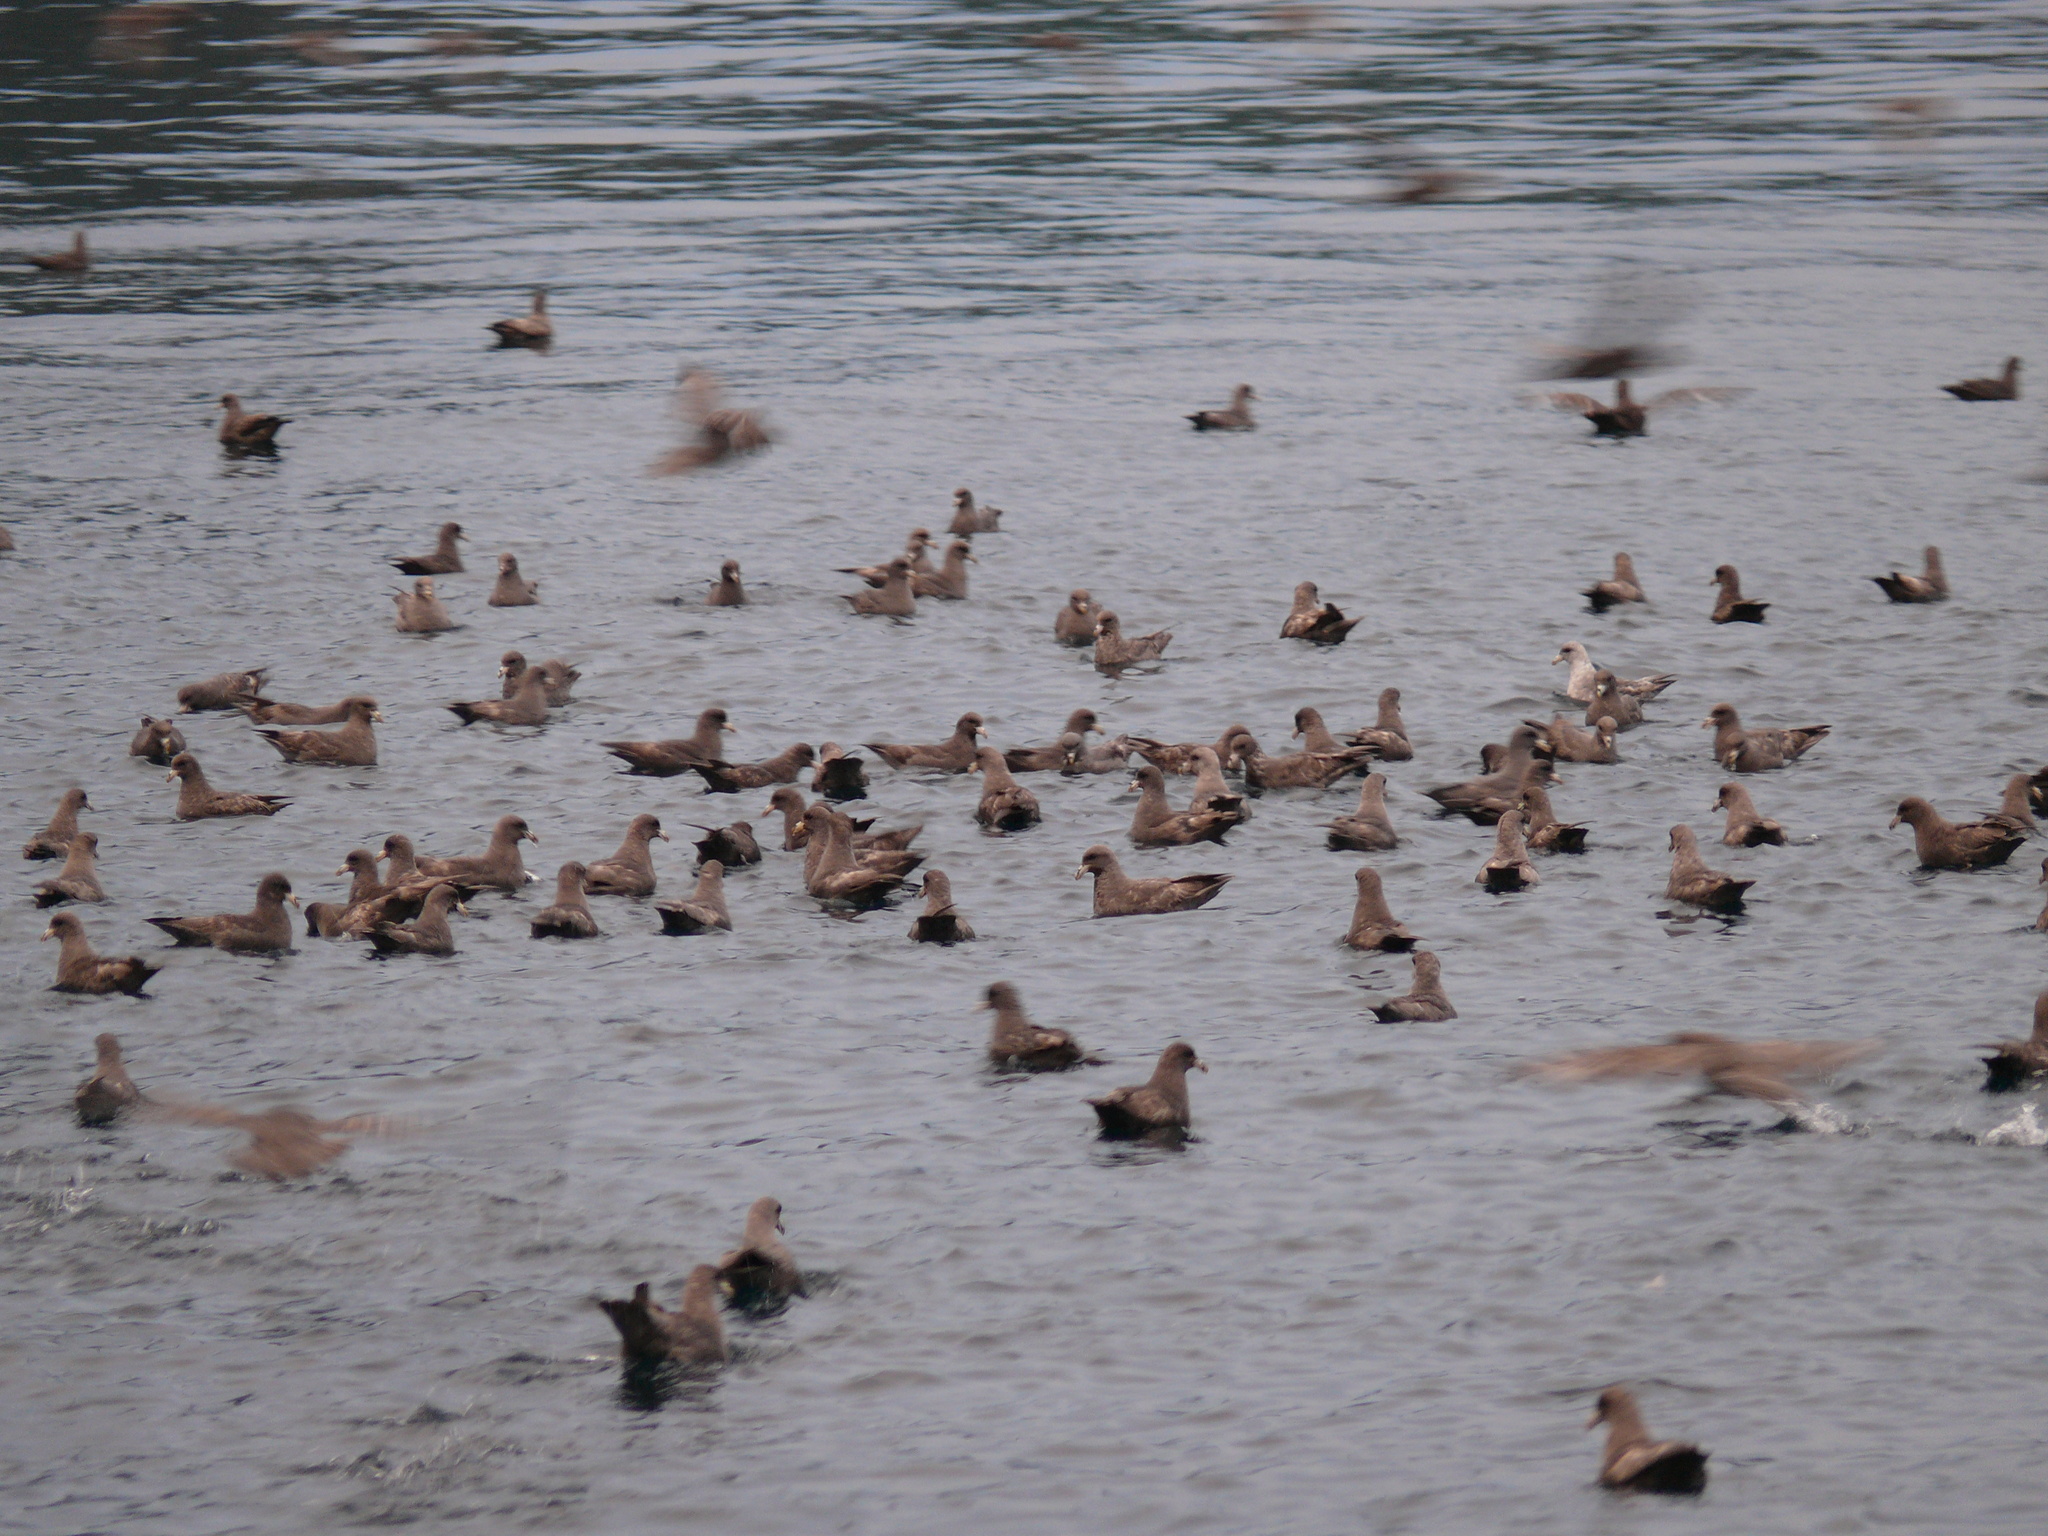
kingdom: Animalia
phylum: Chordata
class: Aves
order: Procellariiformes
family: Procellariidae
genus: Fulmarus
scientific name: Fulmarus glacialis
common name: Northern fulmar
